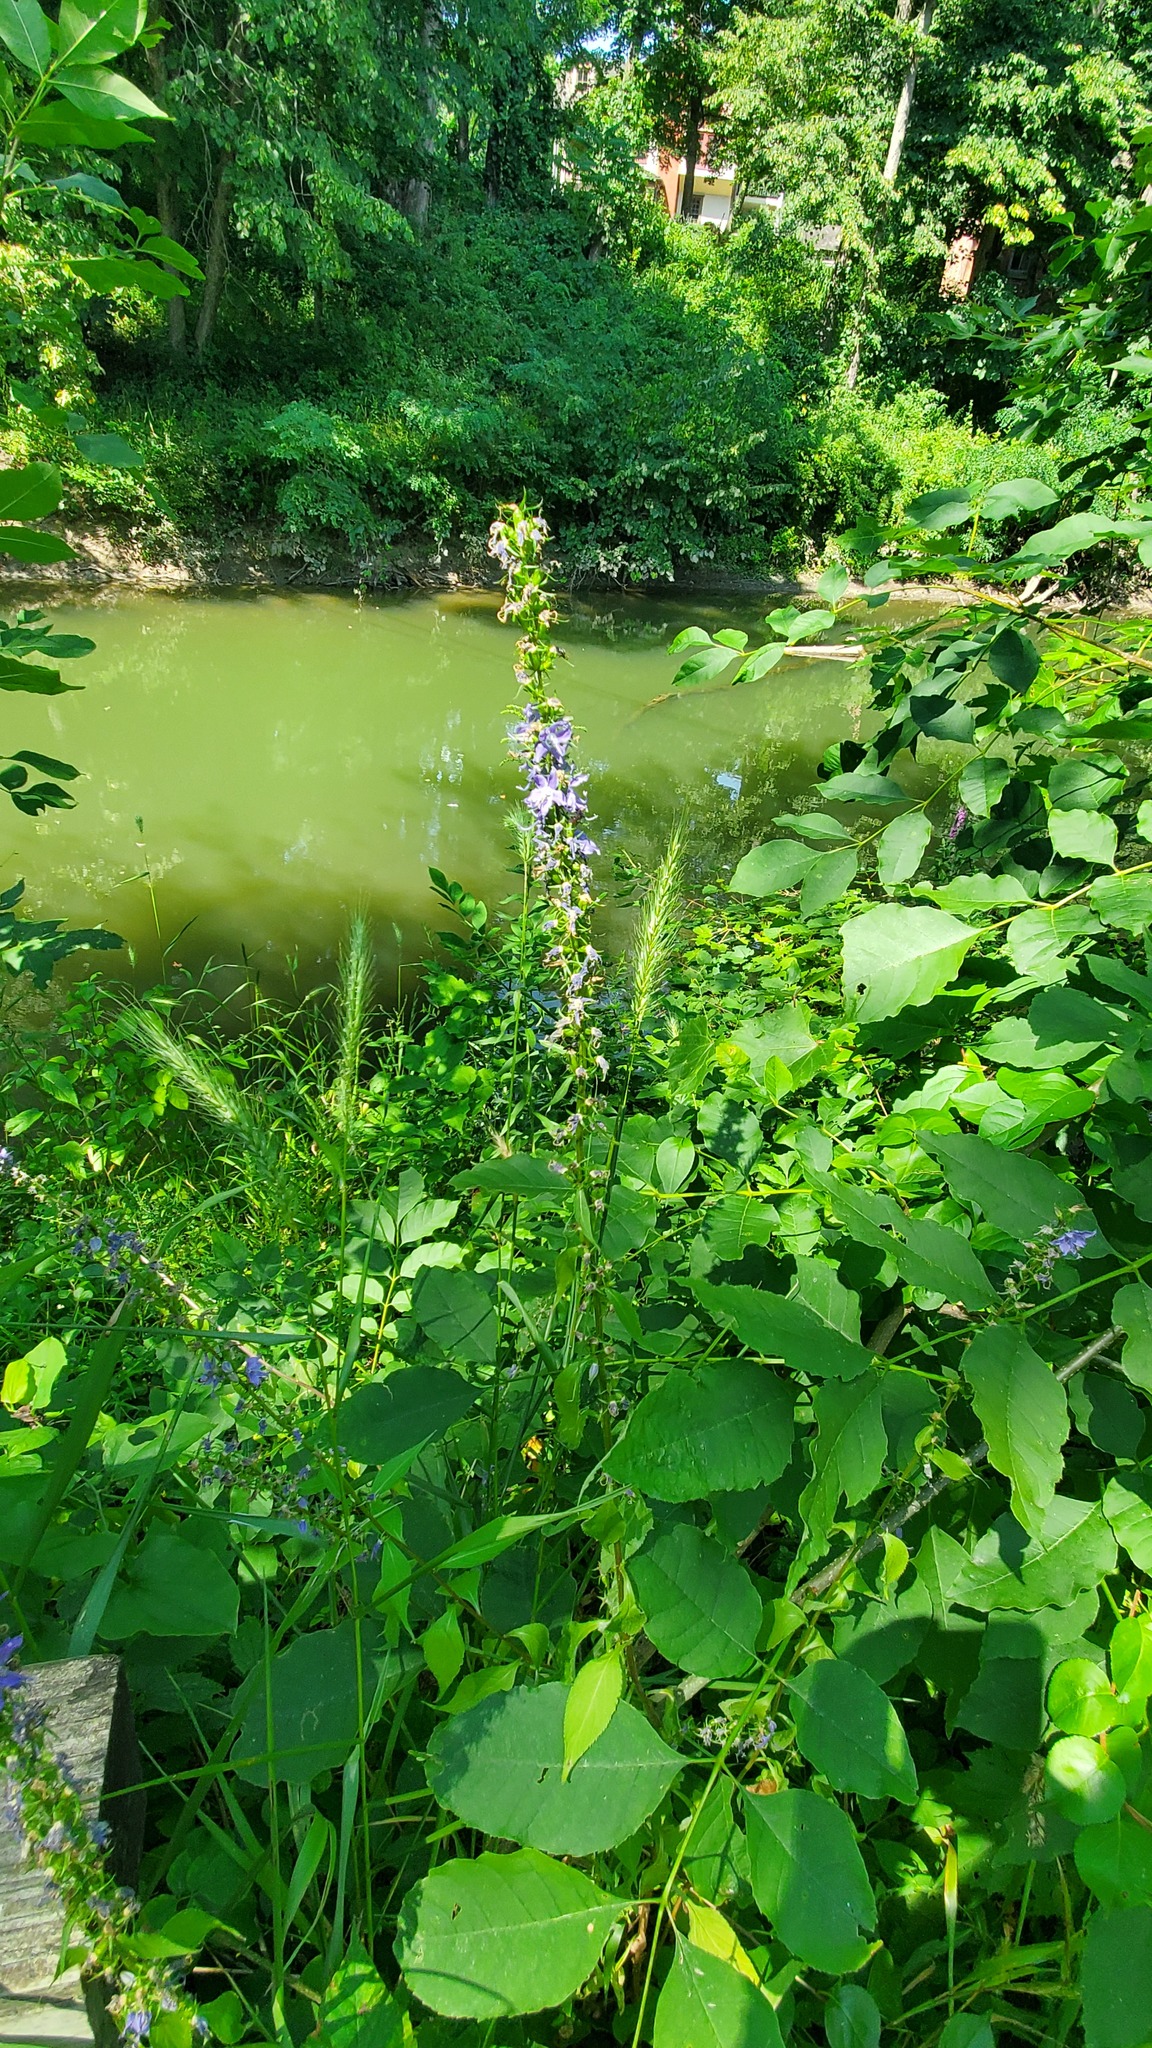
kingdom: Plantae
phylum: Tracheophyta
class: Magnoliopsida
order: Asterales
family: Campanulaceae
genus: Campanulastrum
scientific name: Campanulastrum americanum
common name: American bellflower
